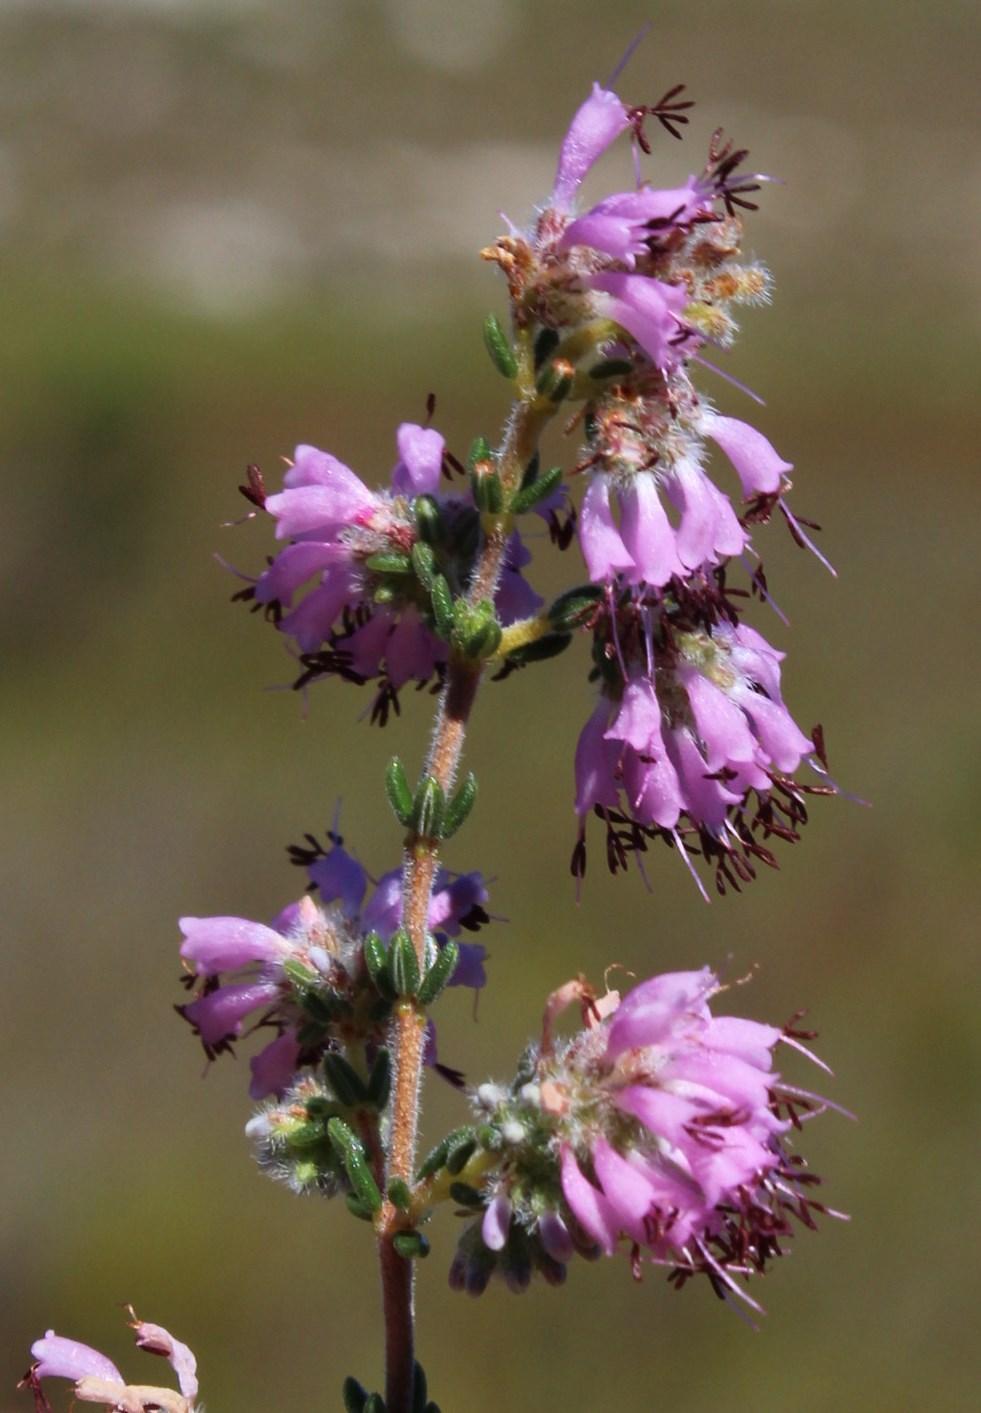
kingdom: Plantae
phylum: Tracheophyta
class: Magnoliopsida
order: Ericales
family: Ericaceae
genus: Erica
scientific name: Erica ericoides
